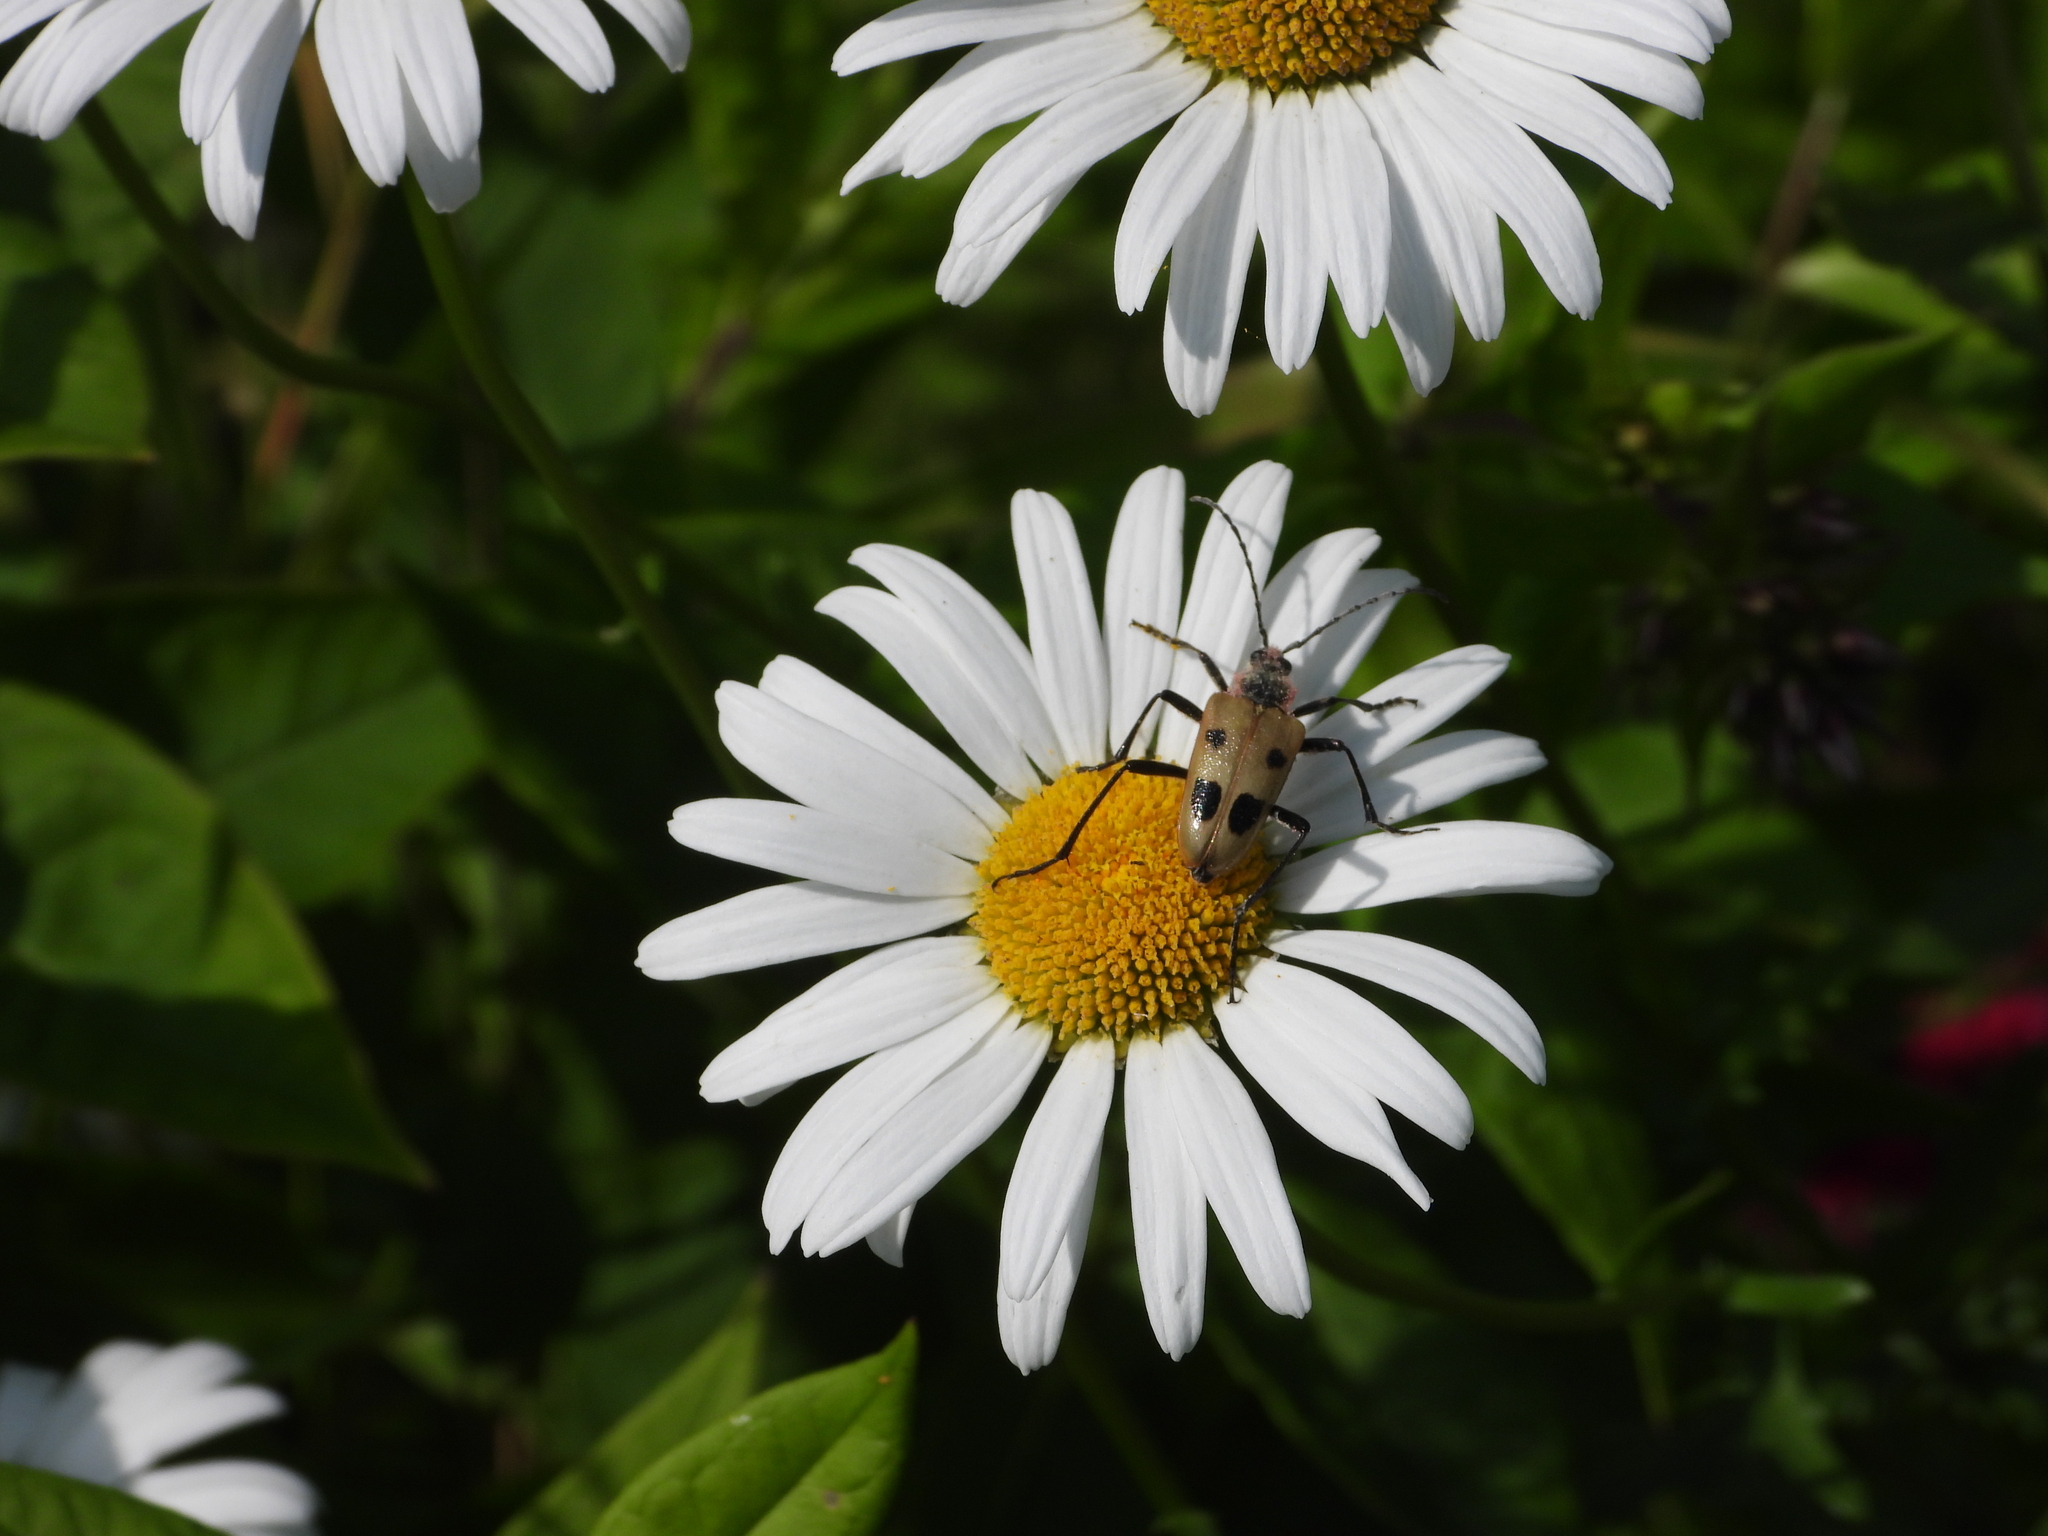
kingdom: Animalia
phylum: Arthropoda
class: Insecta
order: Coleoptera
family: Cerambycidae
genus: Pachyta
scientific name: Pachyta quadrimaculata
